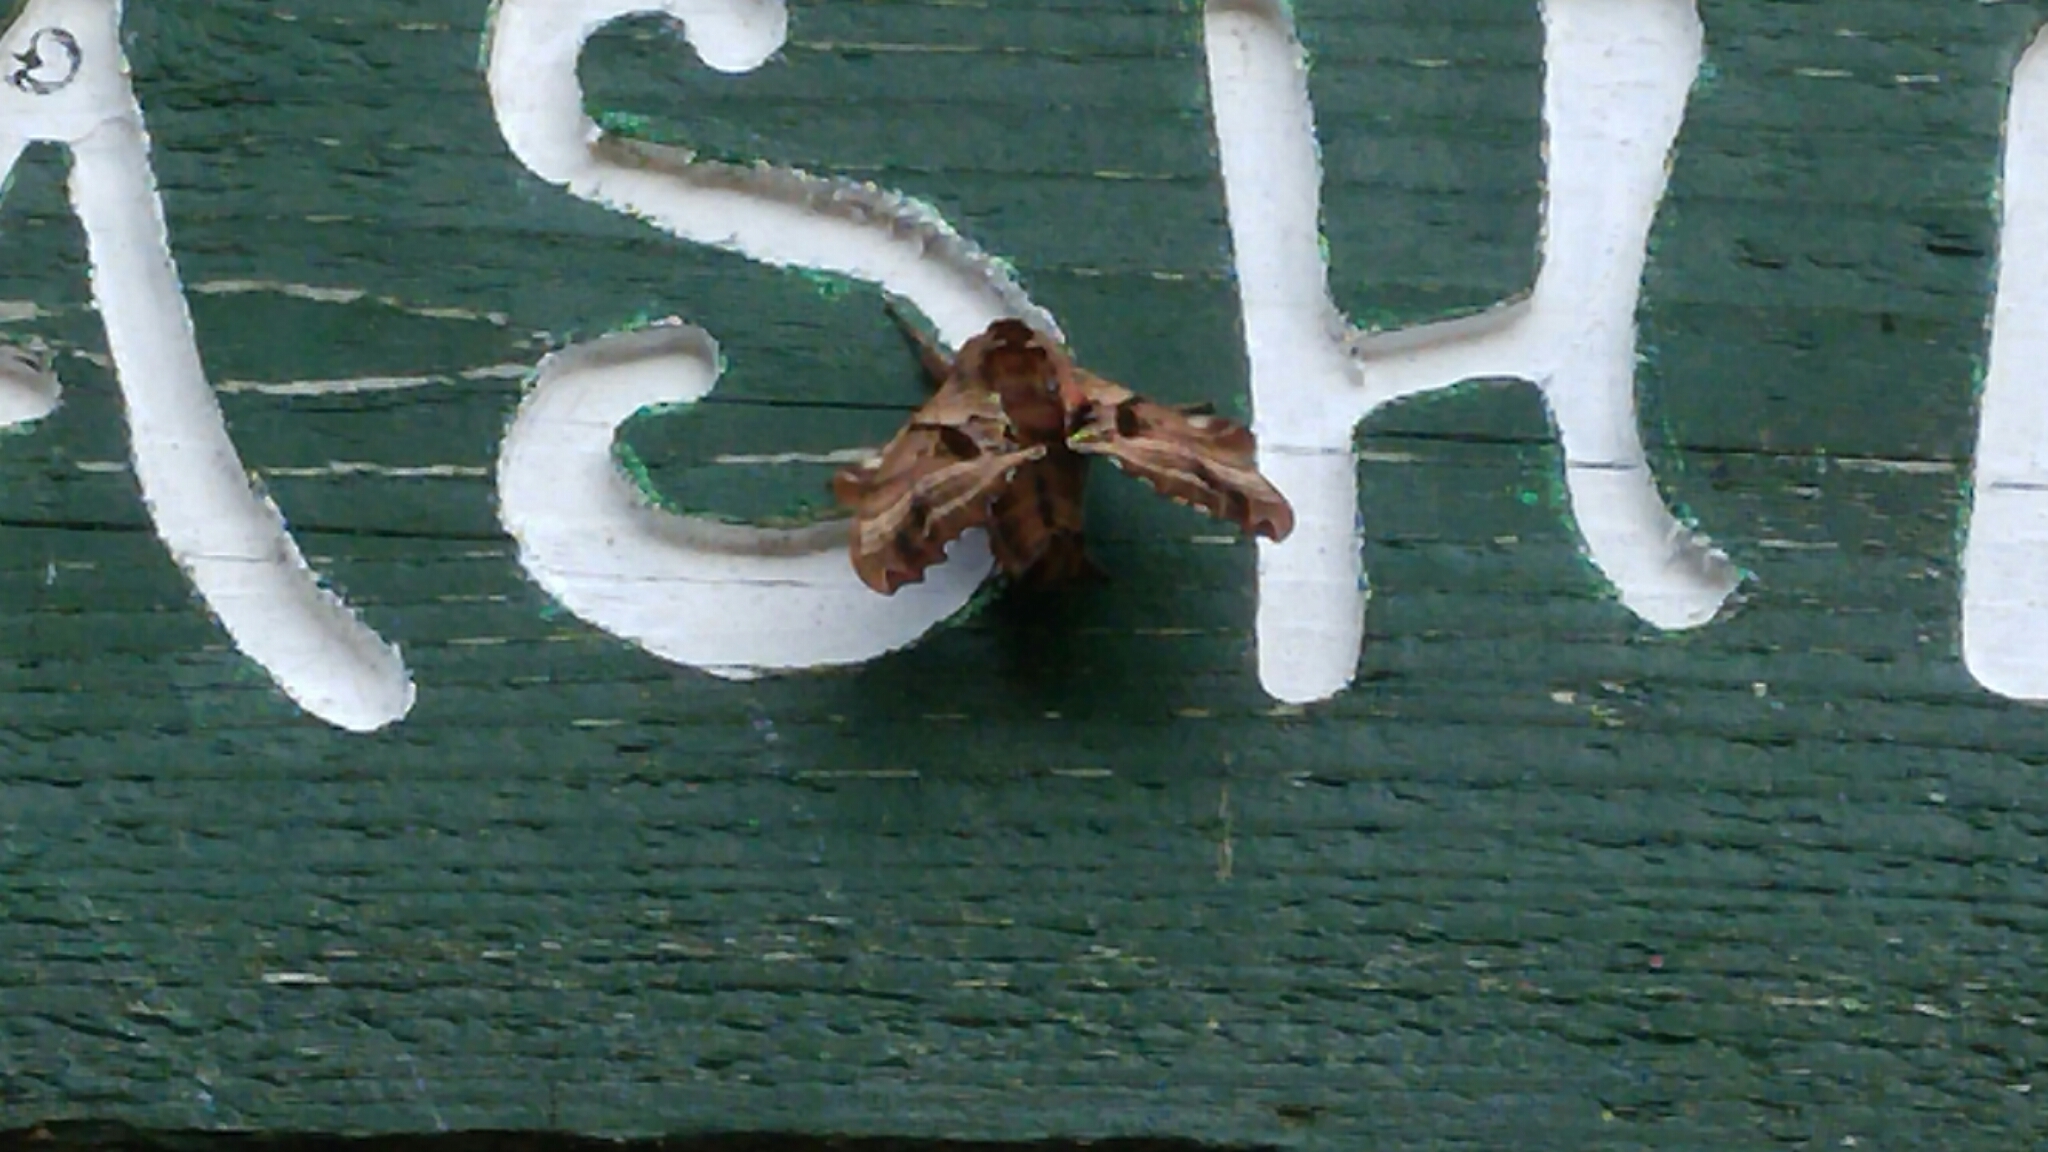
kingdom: Animalia
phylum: Arthropoda
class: Insecta
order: Lepidoptera
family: Sphingidae
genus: Paonias
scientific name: Paonias excaecata
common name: Blind-eyed sphinx
